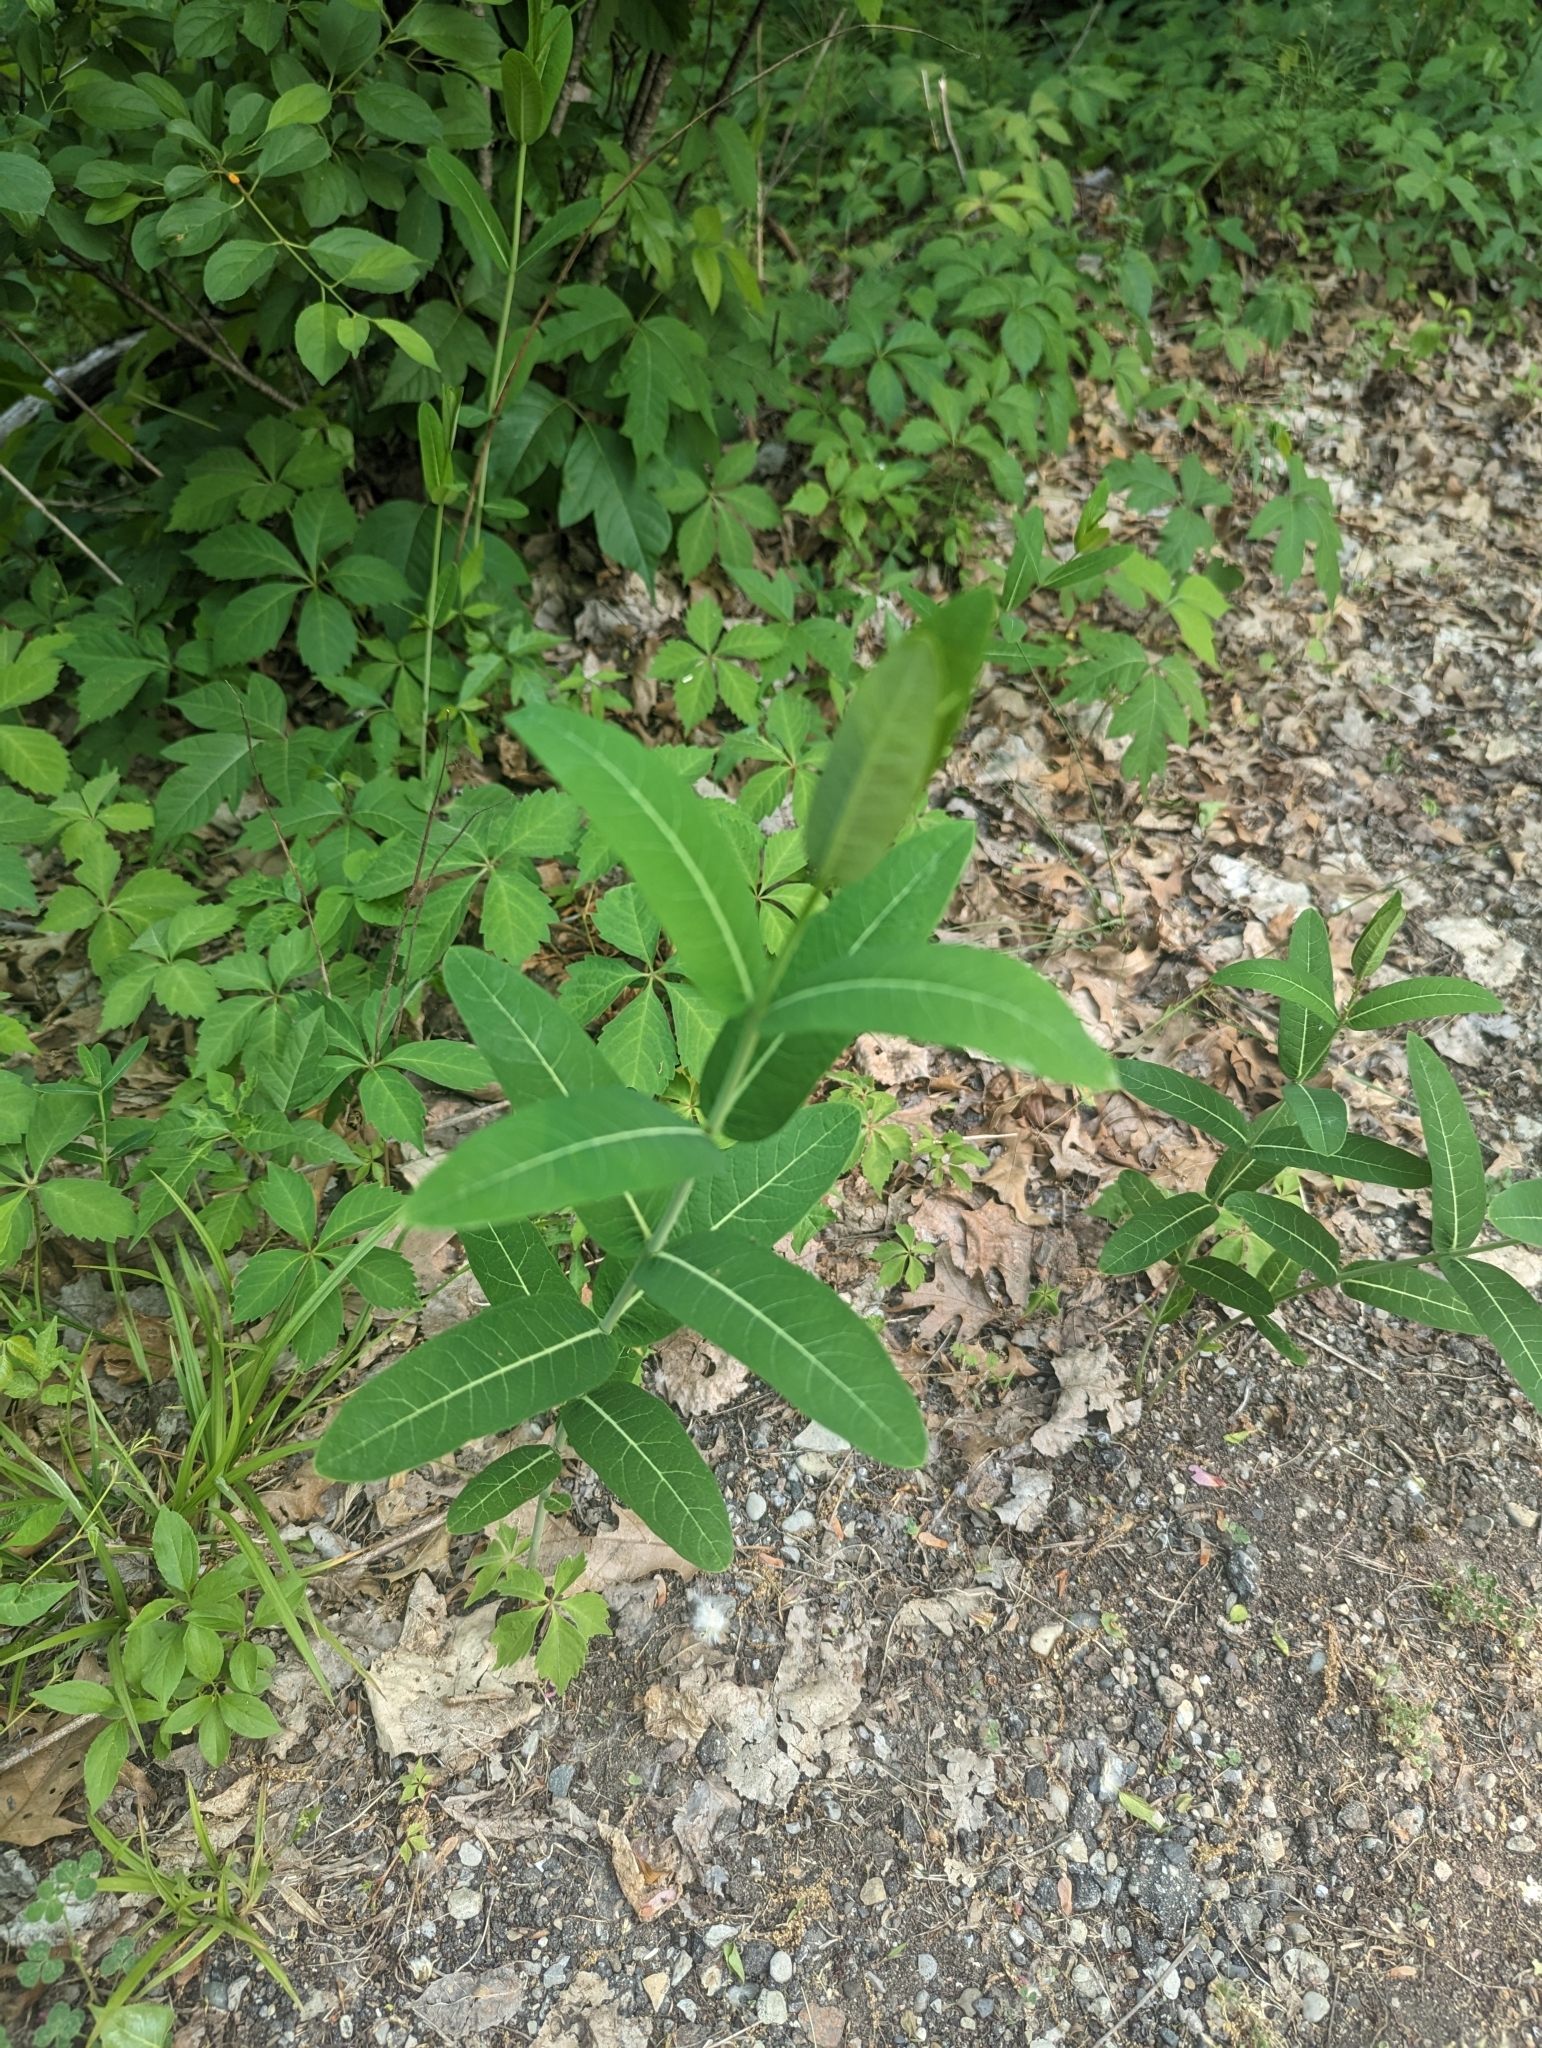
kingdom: Plantae
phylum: Tracheophyta
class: Magnoliopsida
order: Gentianales
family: Apocynaceae
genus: Apocynum
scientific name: Apocynum cannabinum
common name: Hemp dogbane
